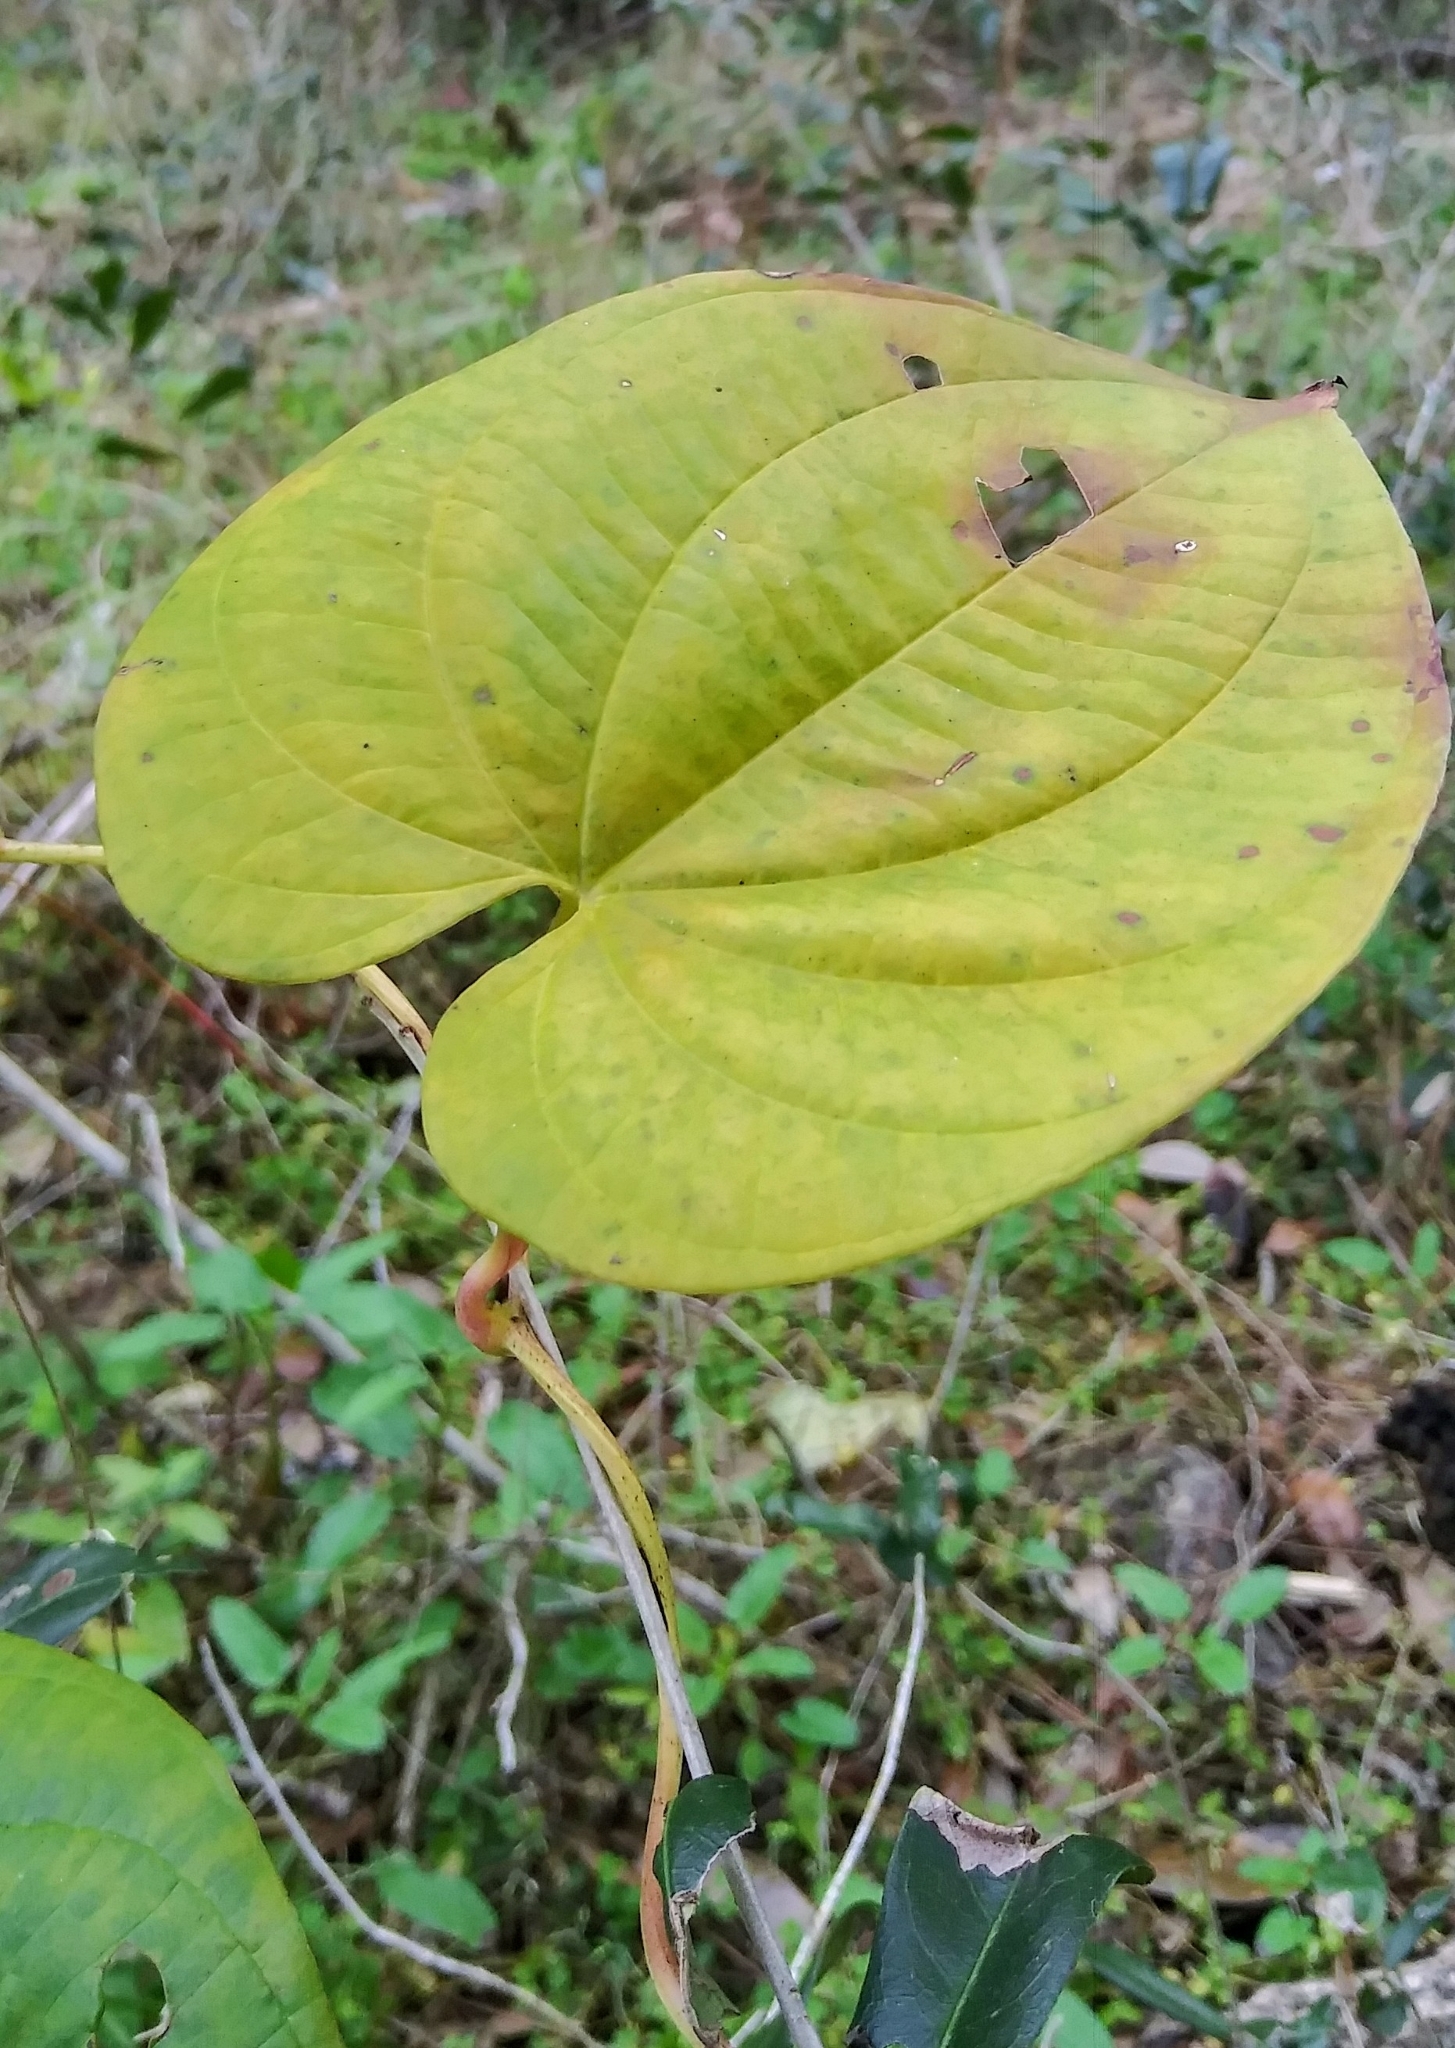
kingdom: Plantae
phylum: Tracheophyta
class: Liliopsida
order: Dioscoreales
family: Dioscoreaceae
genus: Dioscorea
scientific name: Dioscorea bulbifera
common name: Air yam
